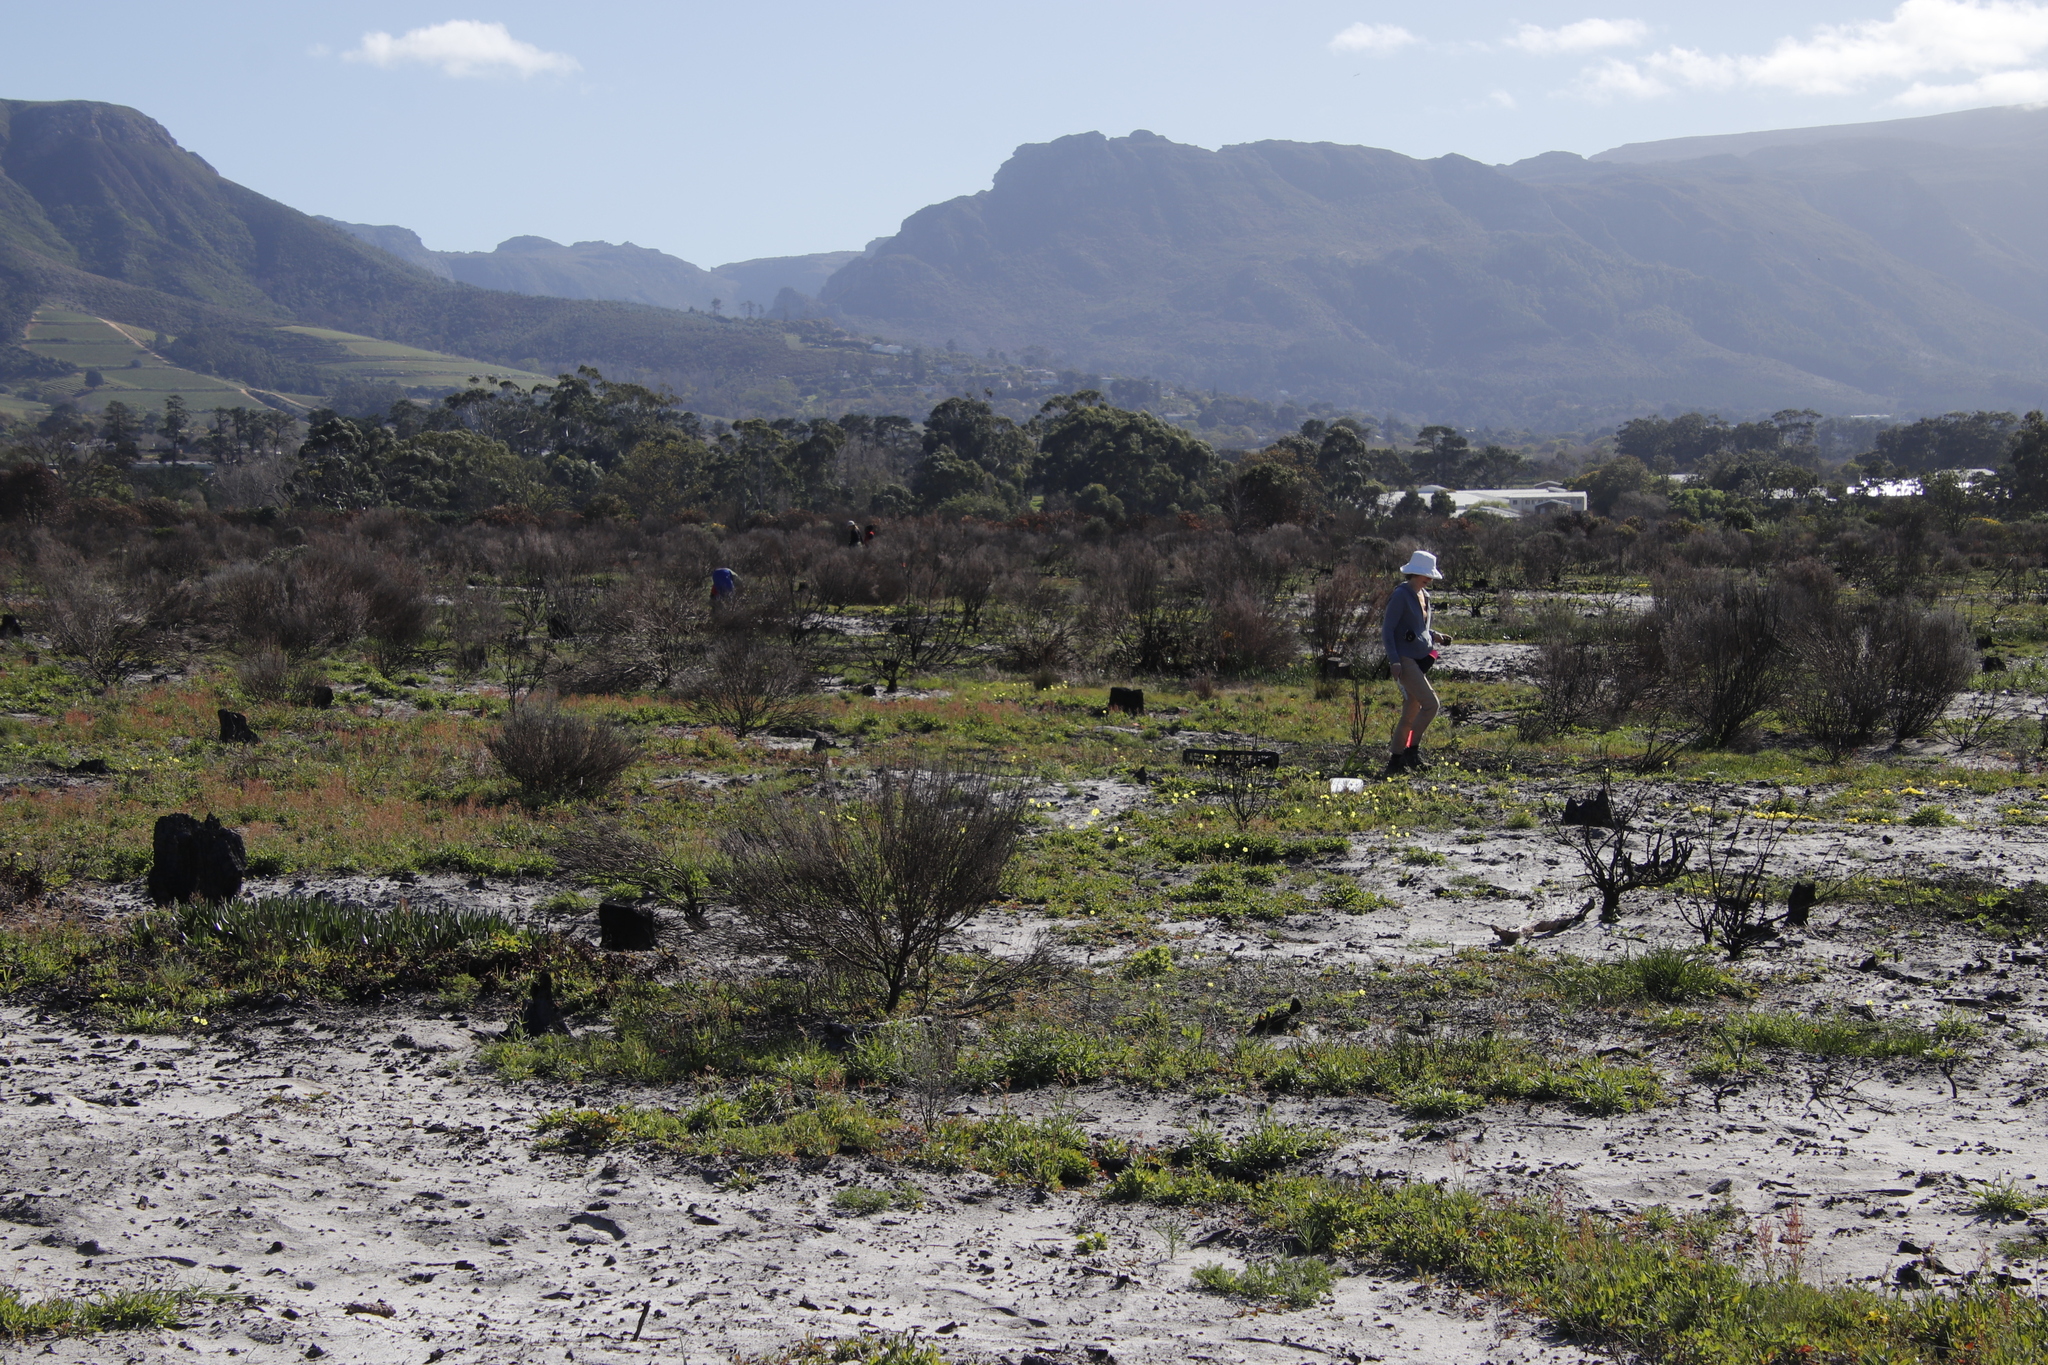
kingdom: Plantae
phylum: Tracheophyta
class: Magnoliopsida
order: Oxalidales
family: Oxalidaceae
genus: Oxalis
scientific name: Oxalis luteola
